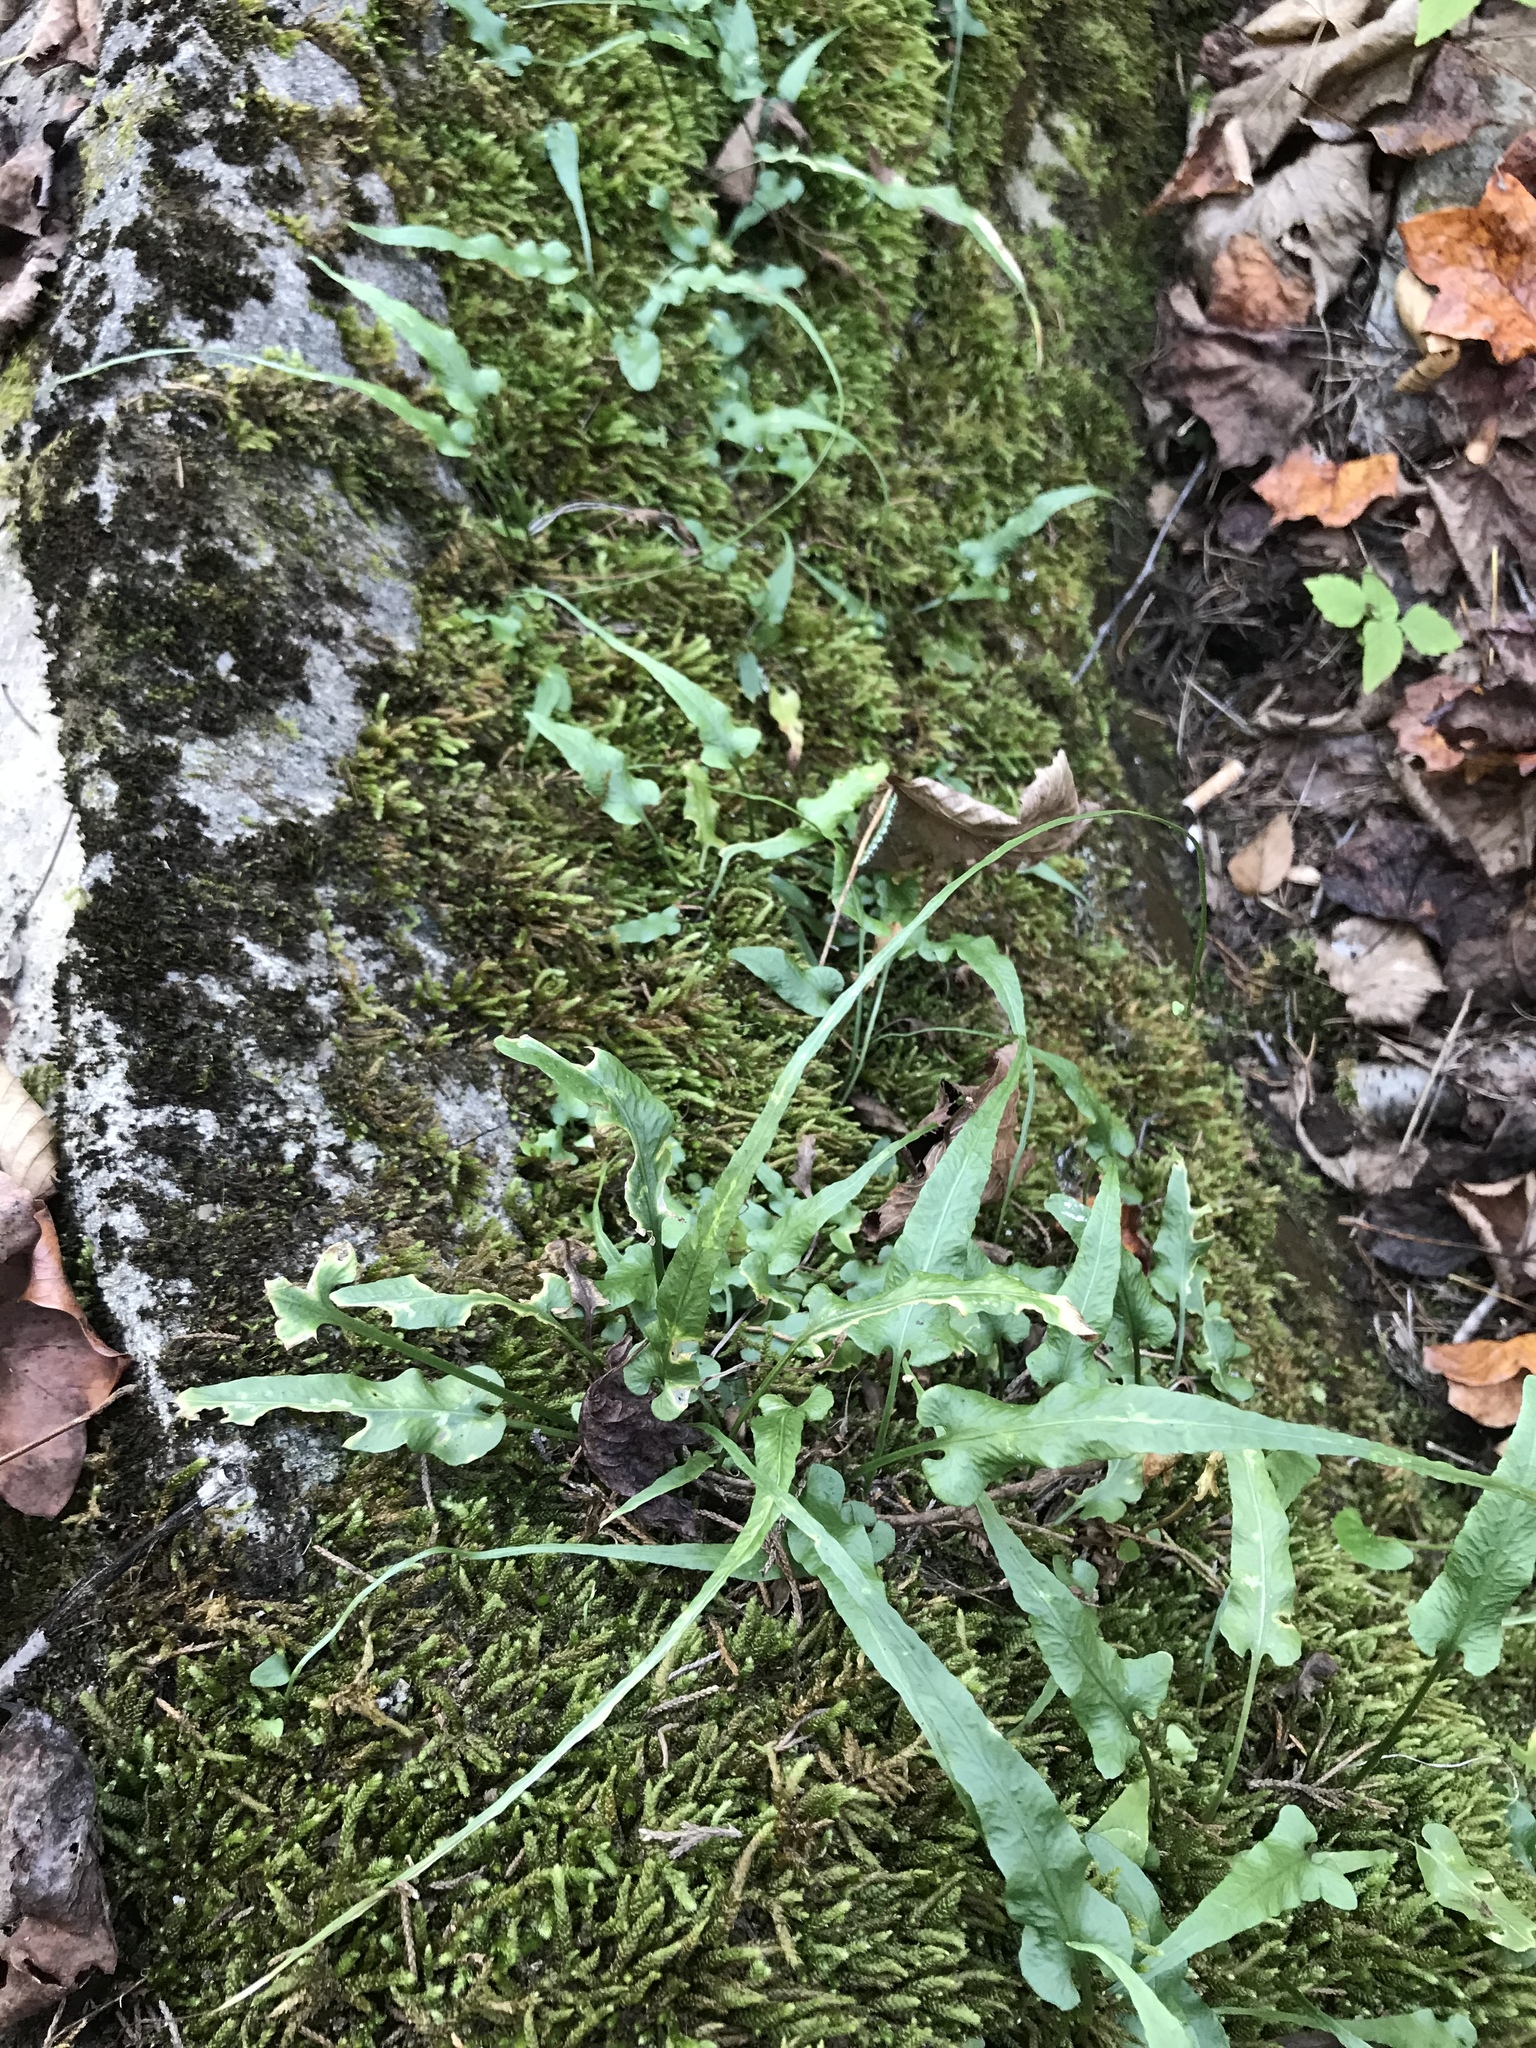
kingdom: Plantae
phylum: Tracheophyta
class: Polypodiopsida
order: Polypodiales
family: Aspleniaceae
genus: Asplenium
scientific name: Asplenium rhizophyllum
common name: Walking fern
